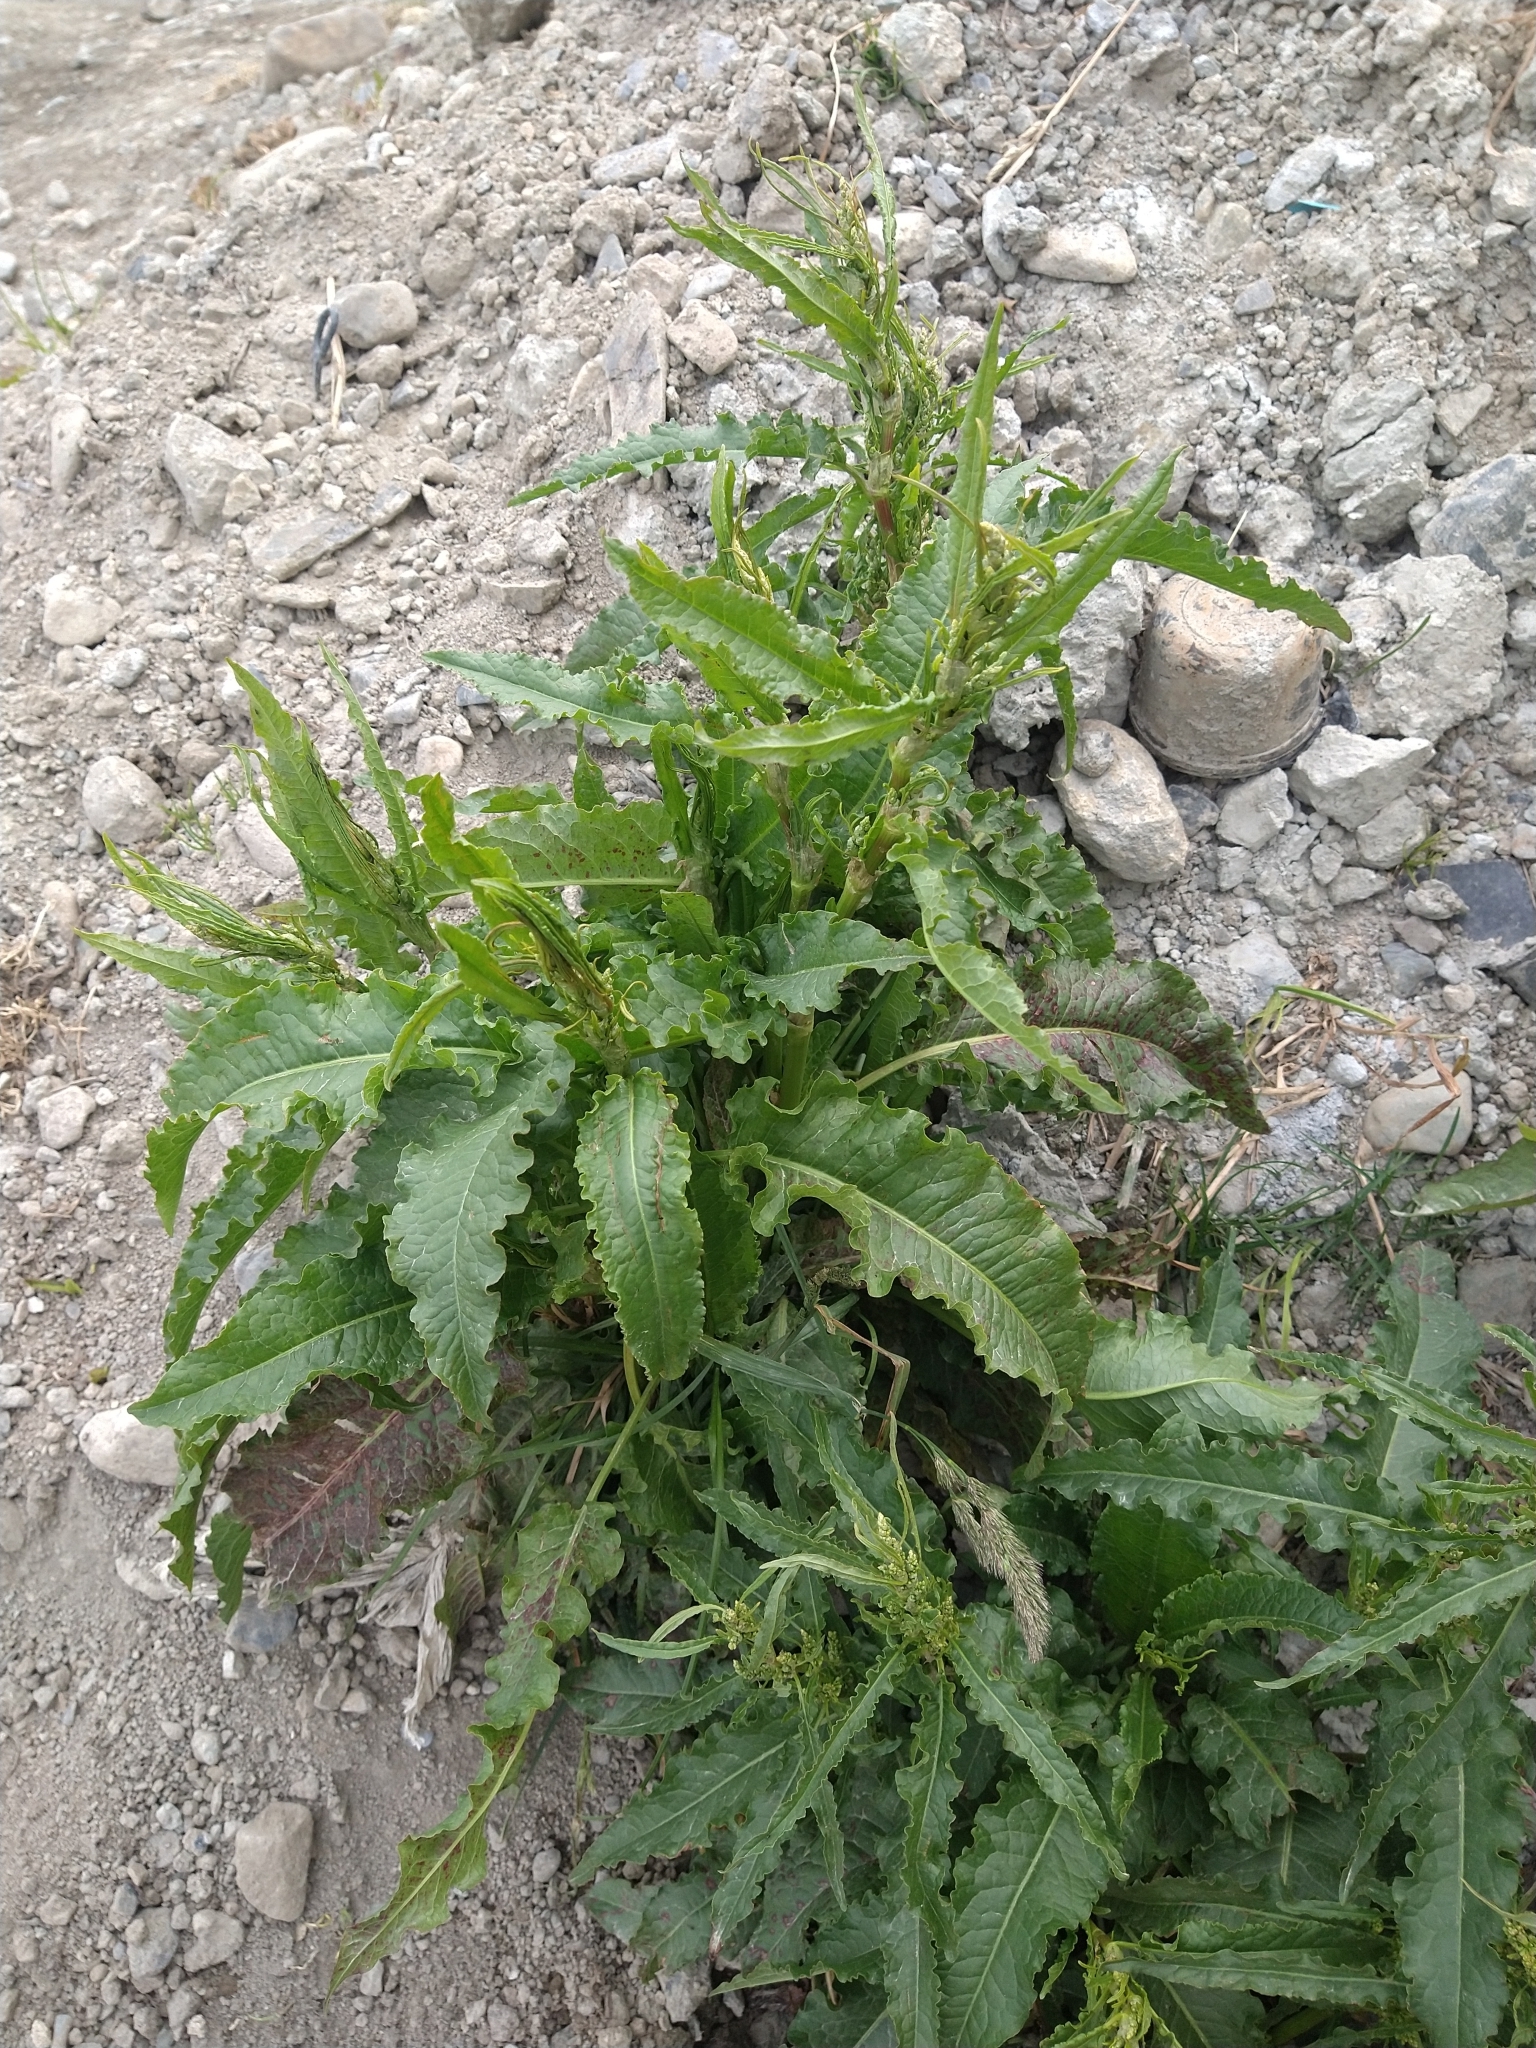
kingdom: Plantae
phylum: Tracheophyta
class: Magnoliopsida
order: Caryophyllales
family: Polygonaceae
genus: Rumex
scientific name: Rumex crispus
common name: Curled dock
